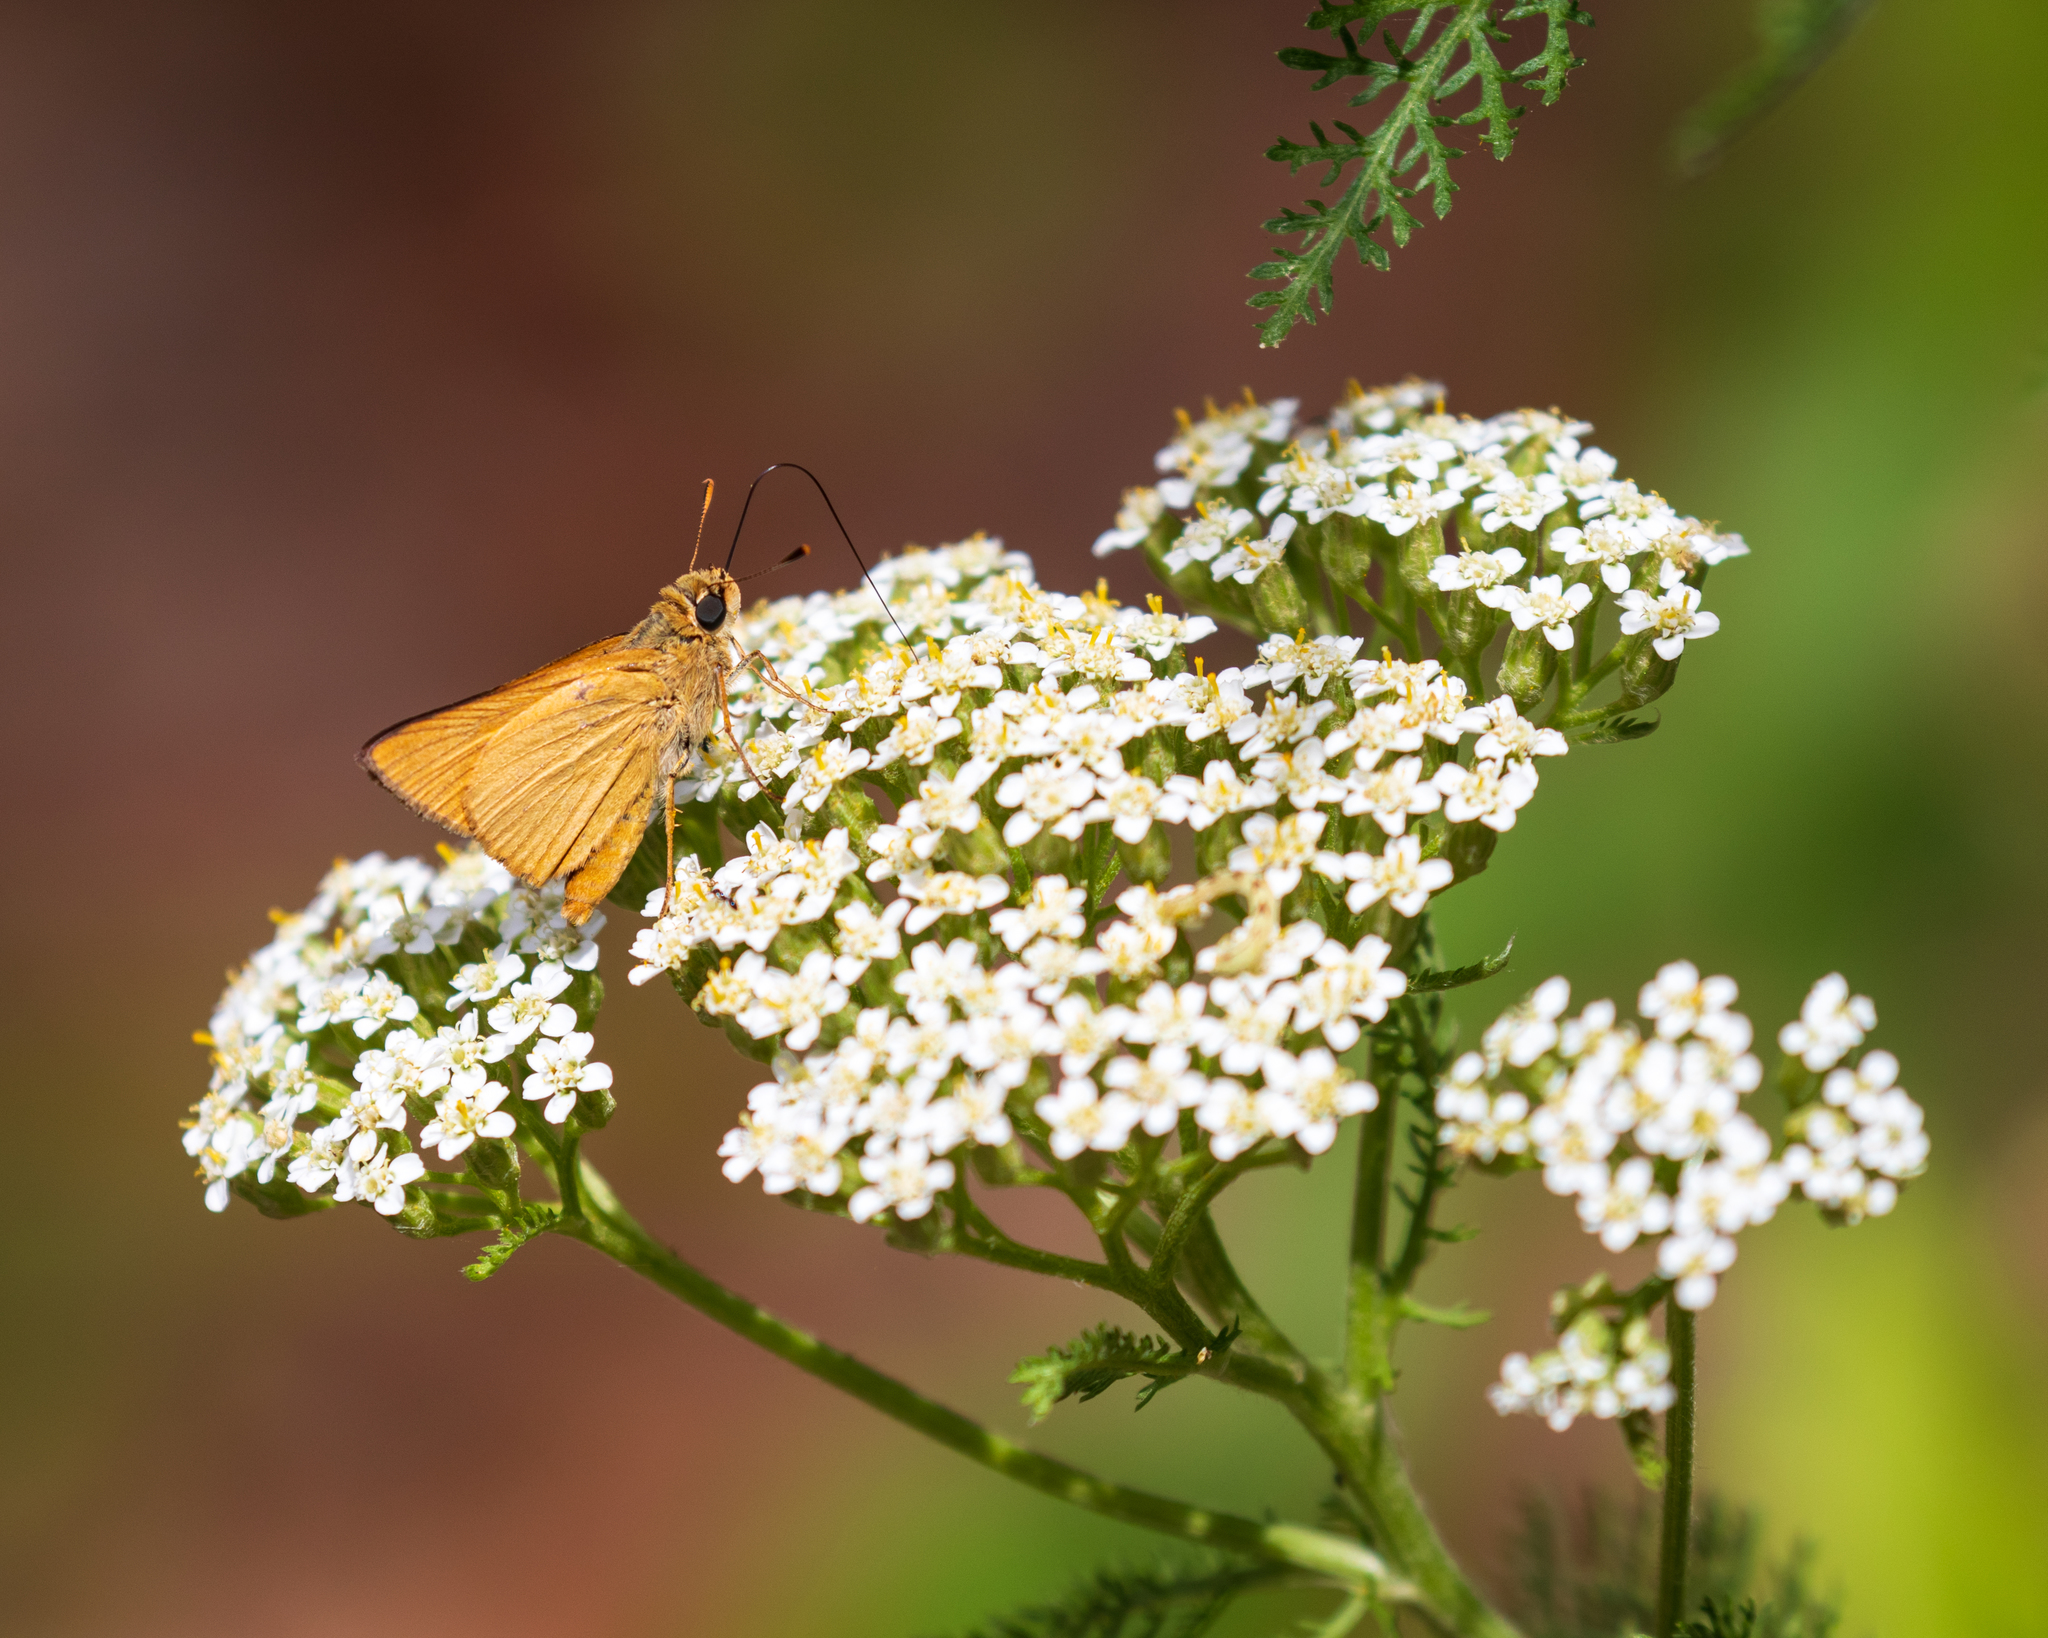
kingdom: Animalia
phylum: Arthropoda
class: Insecta
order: Lepidoptera
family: Hesperiidae
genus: Atrytone
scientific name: Atrytone delaware
